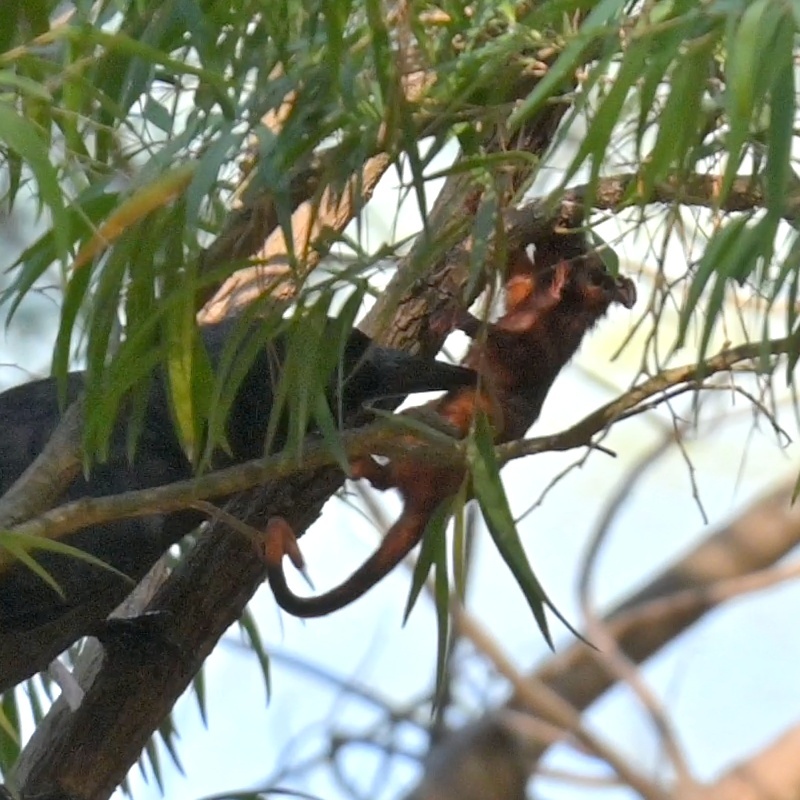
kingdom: Animalia
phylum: Chordata
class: Mammalia
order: Diprotodontia
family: Pseudocheiridae
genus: Pseudocheirus
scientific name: Pseudocheirus peregrinus
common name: Common ringtail possum
